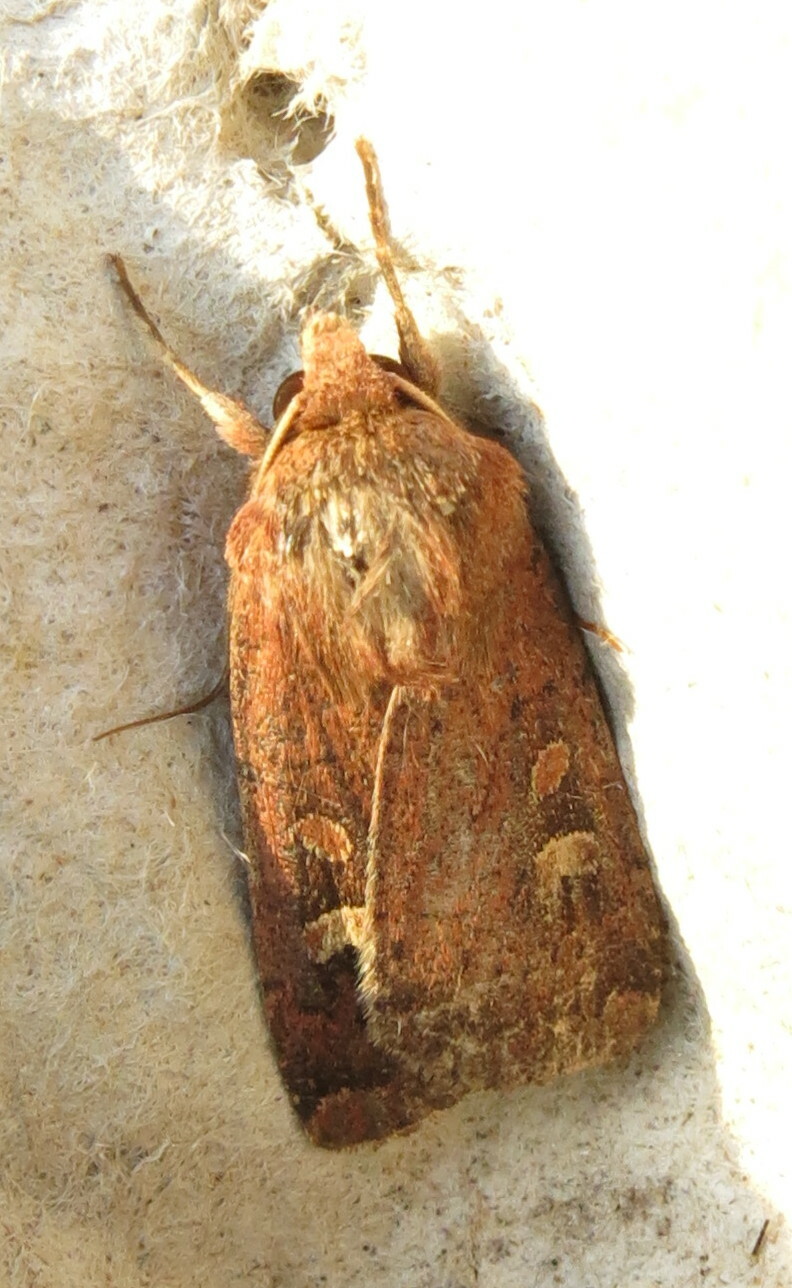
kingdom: Animalia
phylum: Arthropoda
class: Insecta
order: Lepidoptera
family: Noctuidae
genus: Xestia
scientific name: Xestia xanthographa
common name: Square-spot rustic
